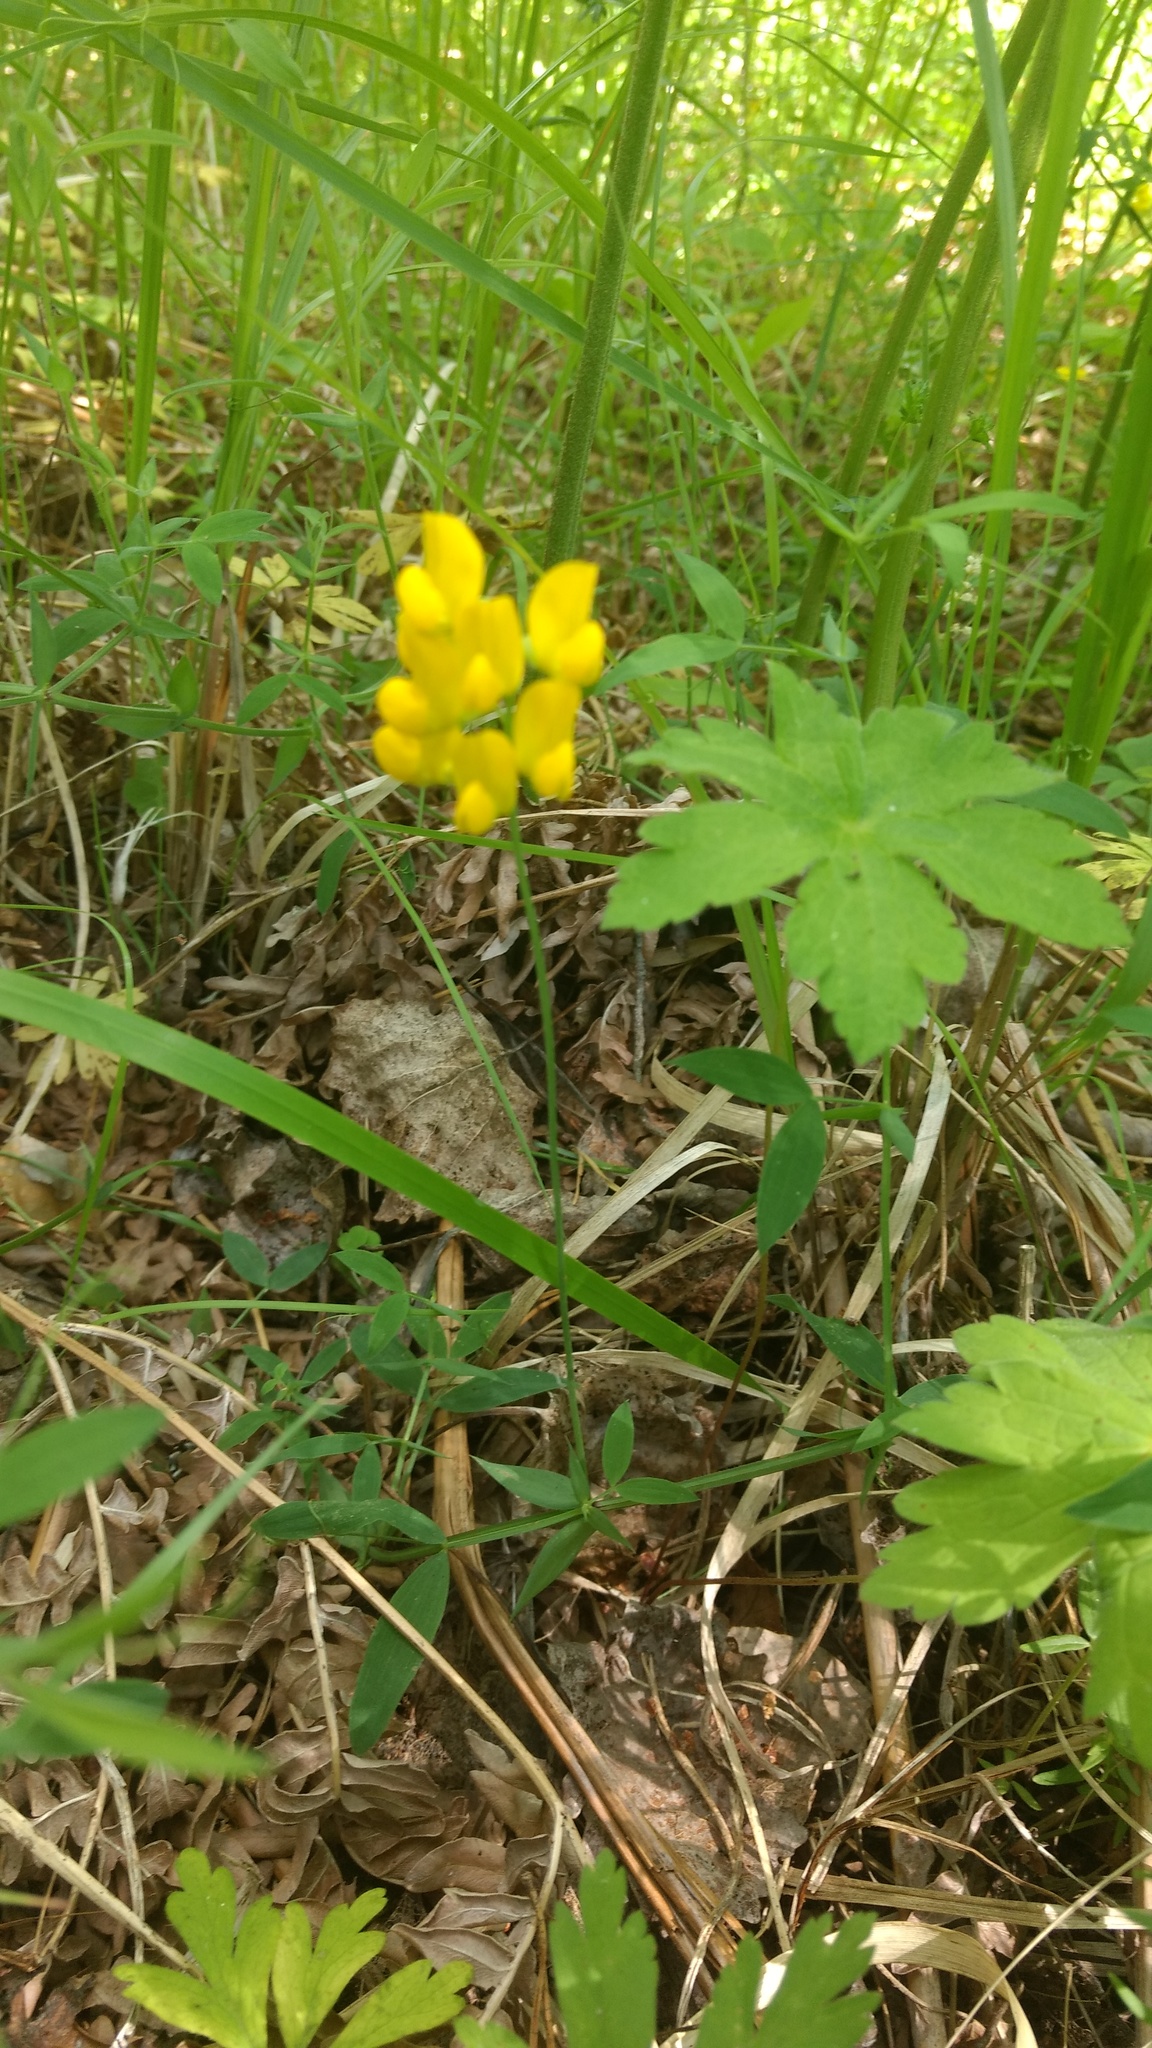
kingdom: Plantae
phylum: Tracheophyta
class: Magnoliopsida
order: Fabales
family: Fabaceae
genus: Lathyrus
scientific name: Lathyrus pratensis
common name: Meadow vetchling
